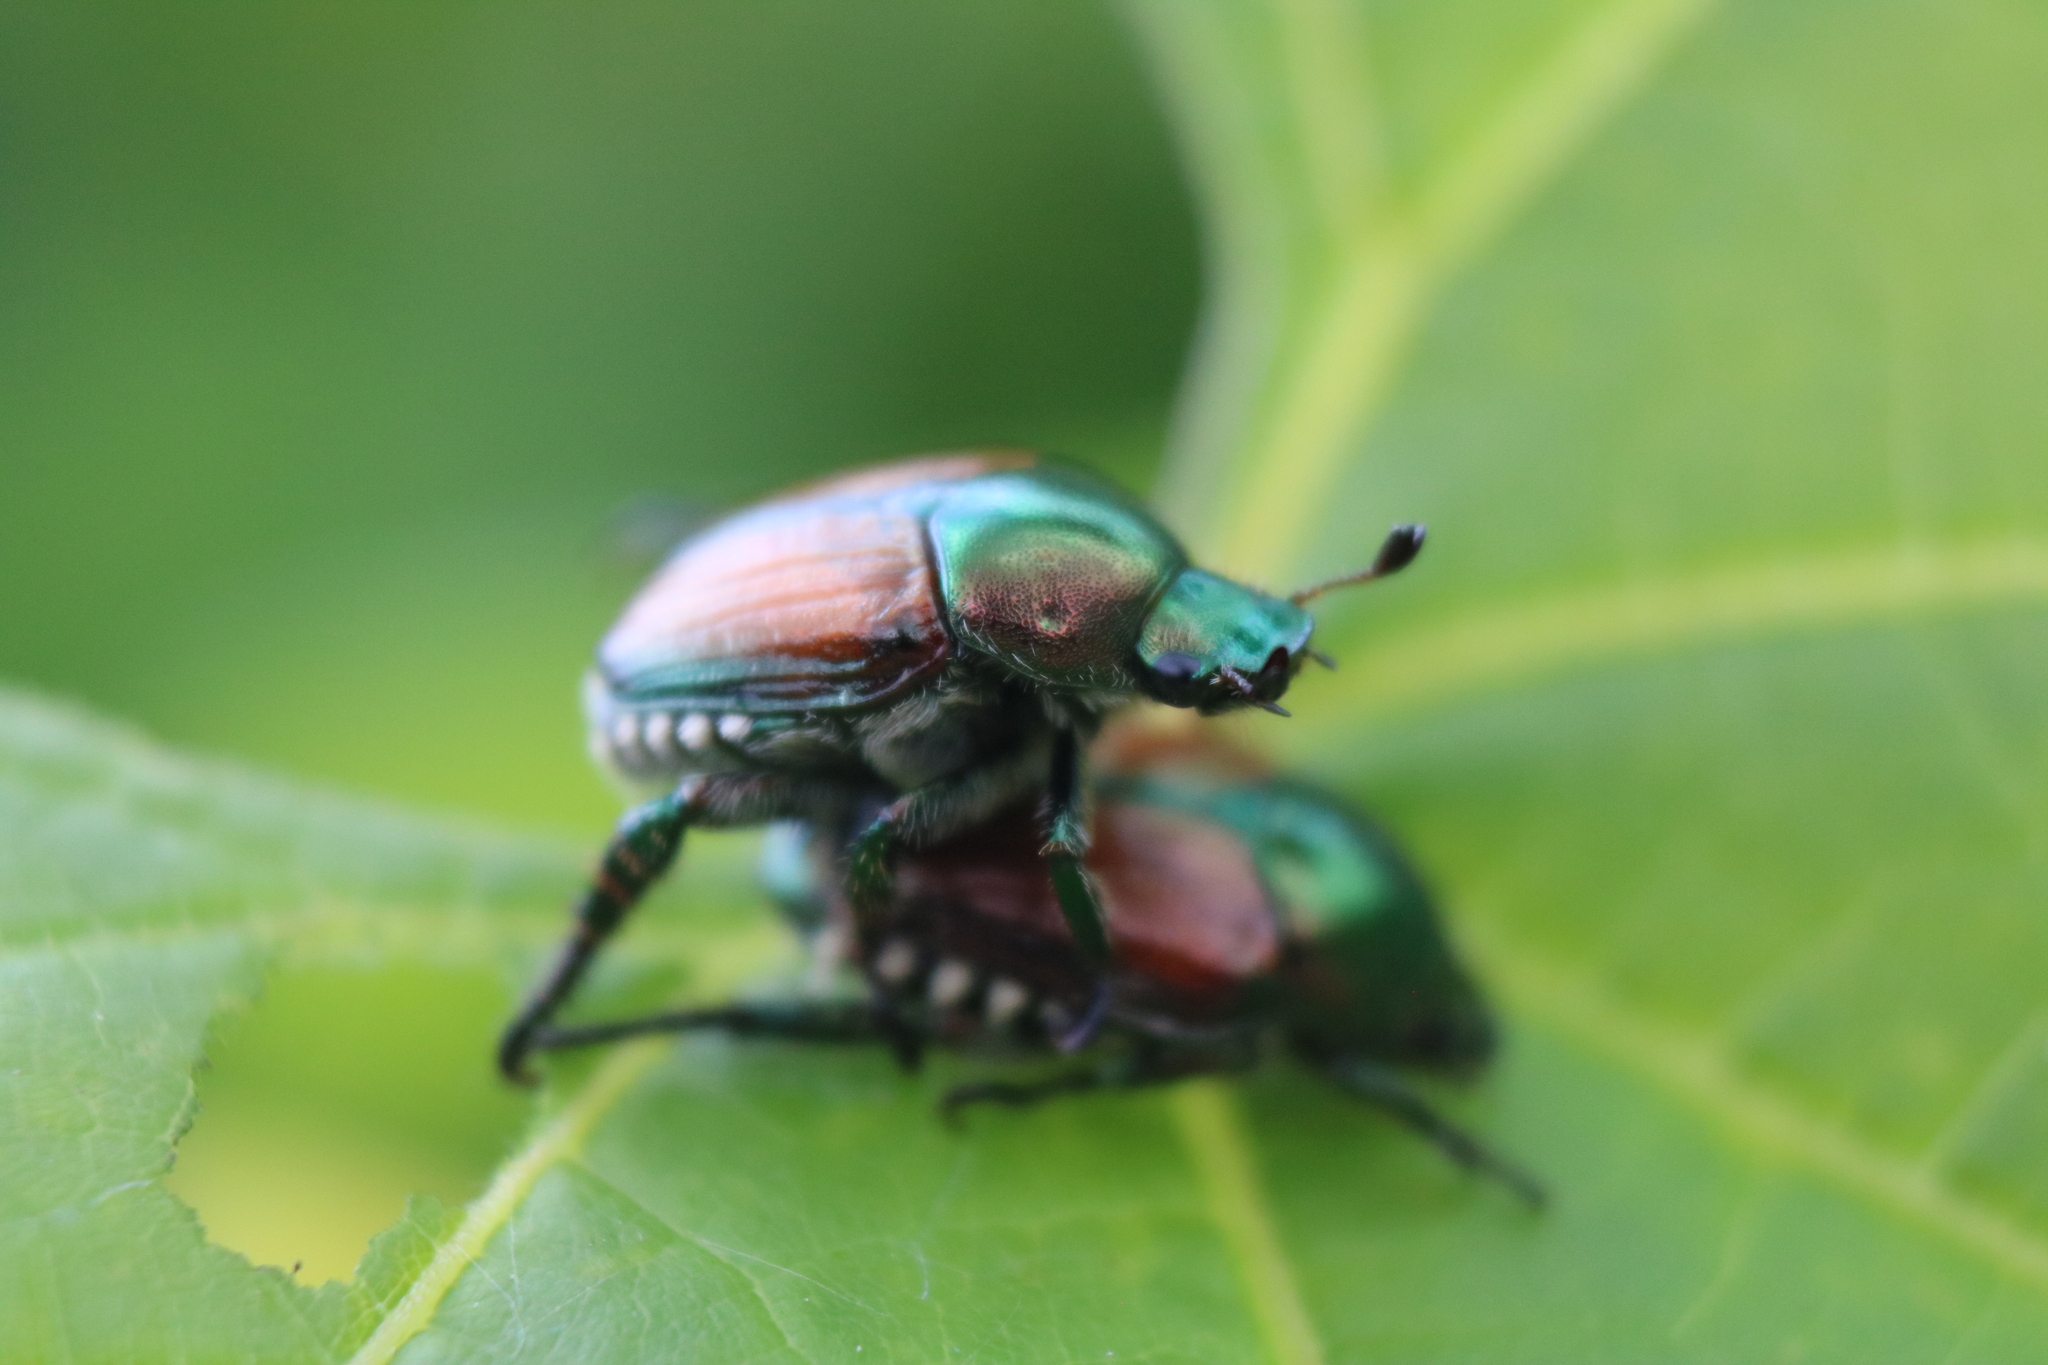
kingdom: Animalia
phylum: Arthropoda
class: Insecta
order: Coleoptera
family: Scarabaeidae
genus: Popillia
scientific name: Popillia japonica
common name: Japanese beetle
